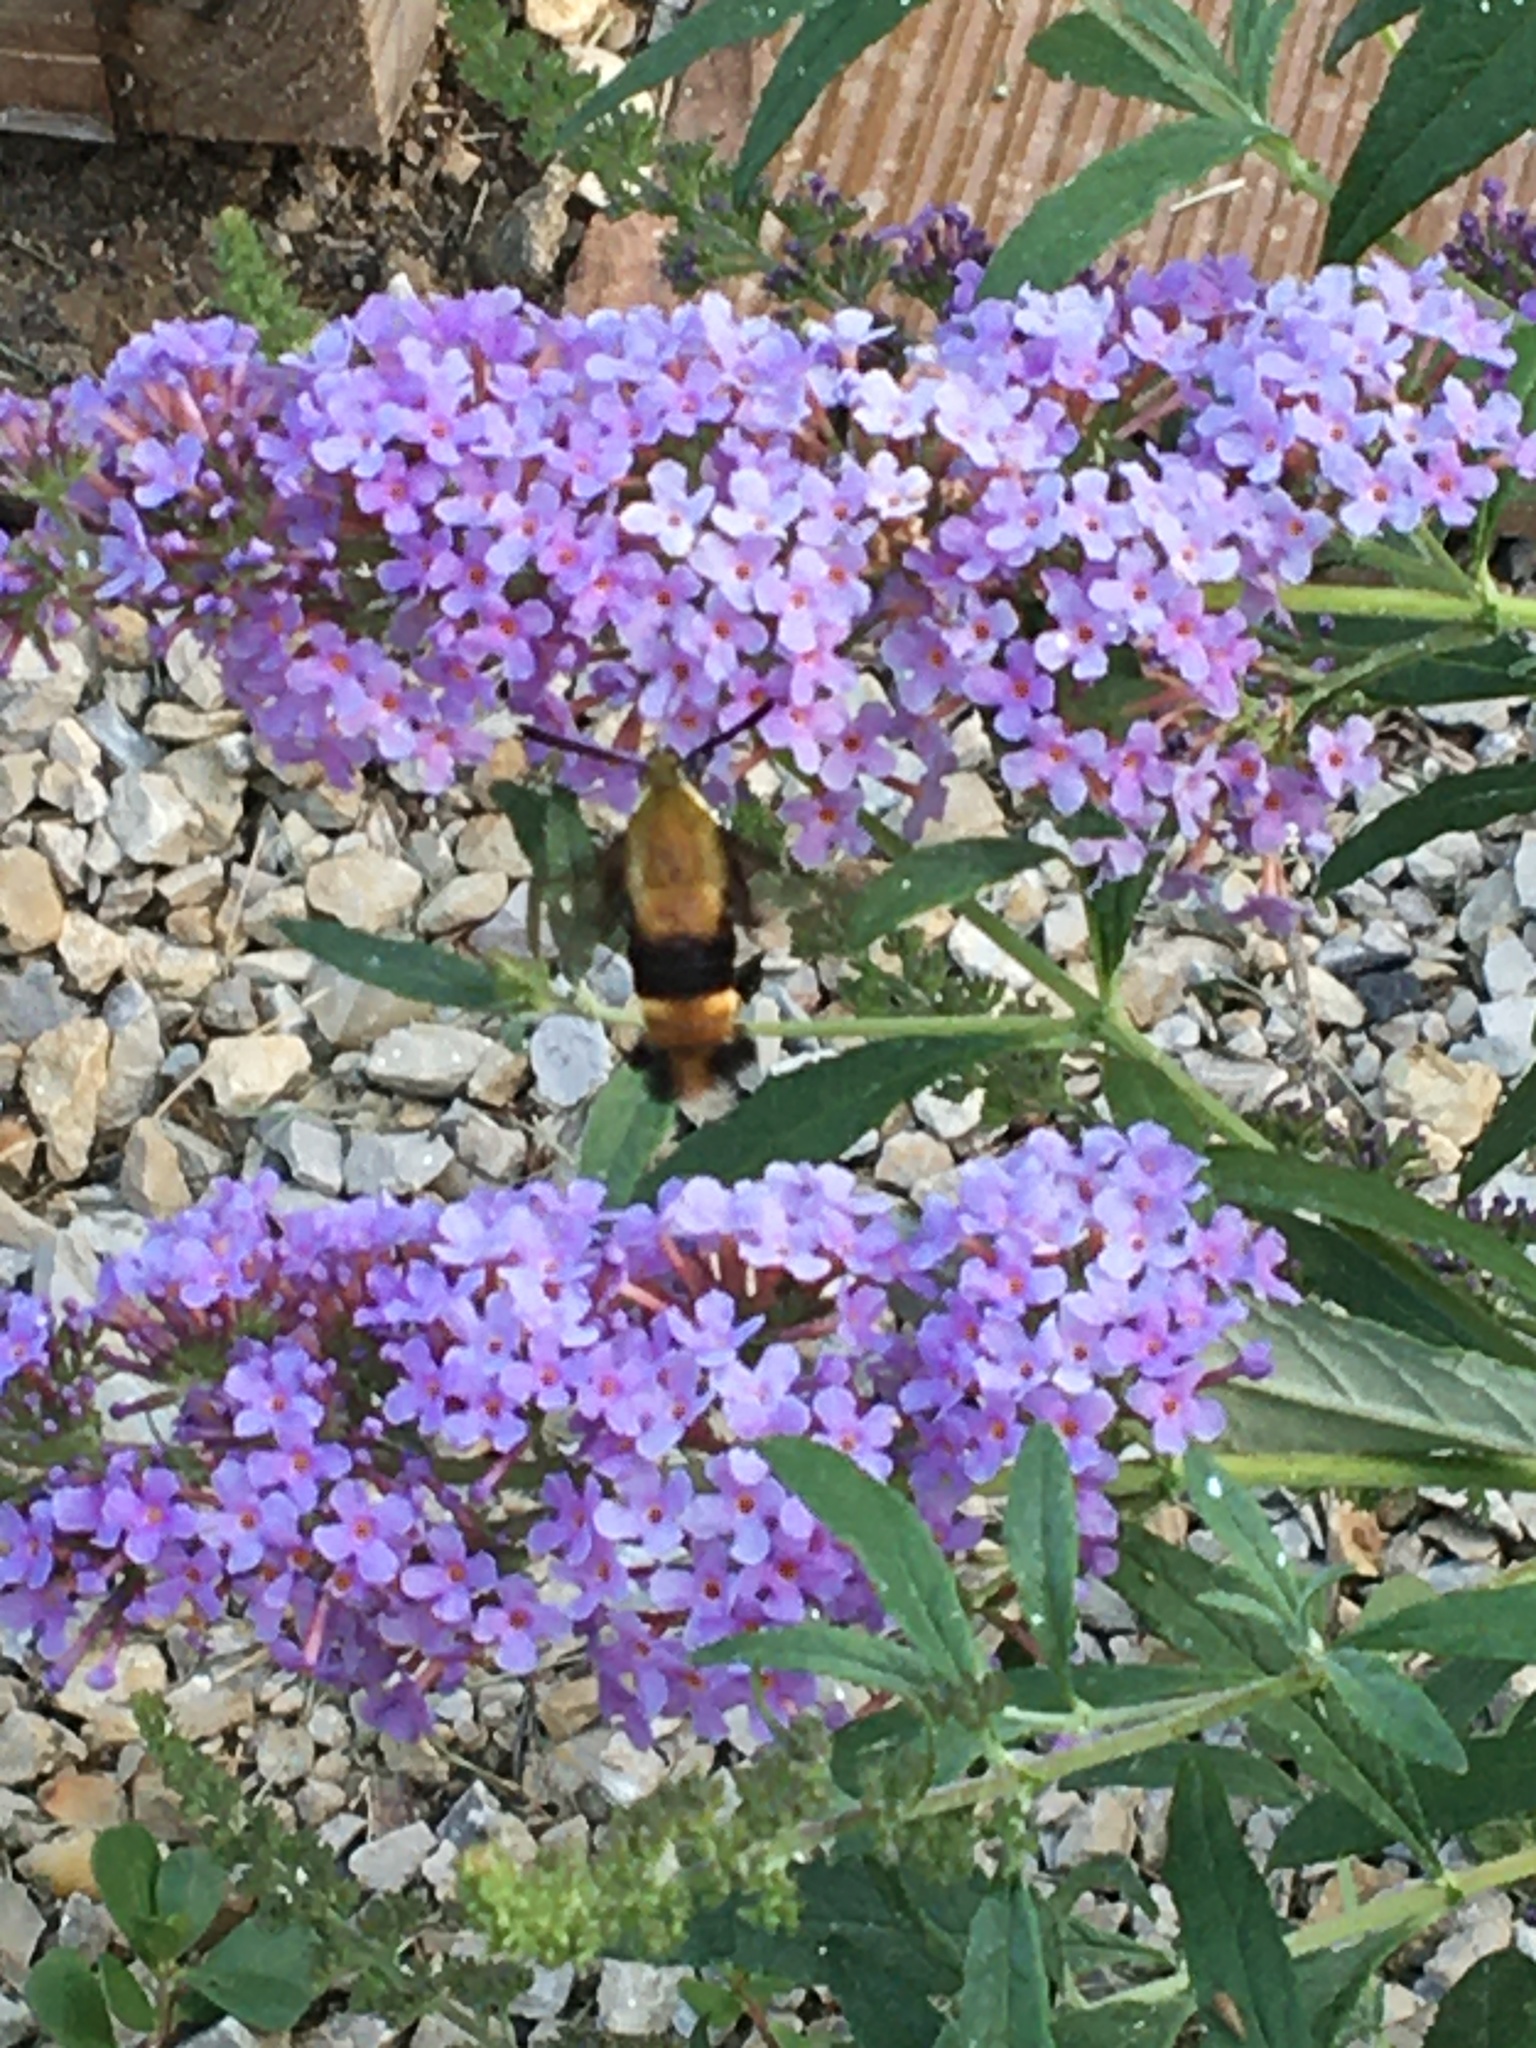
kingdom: Animalia
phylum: Arthropoda
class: Insecta
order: Lepidoptera
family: Sphingidae
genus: Hemaris
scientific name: Hemaris diffinis
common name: Bumblebee moth
